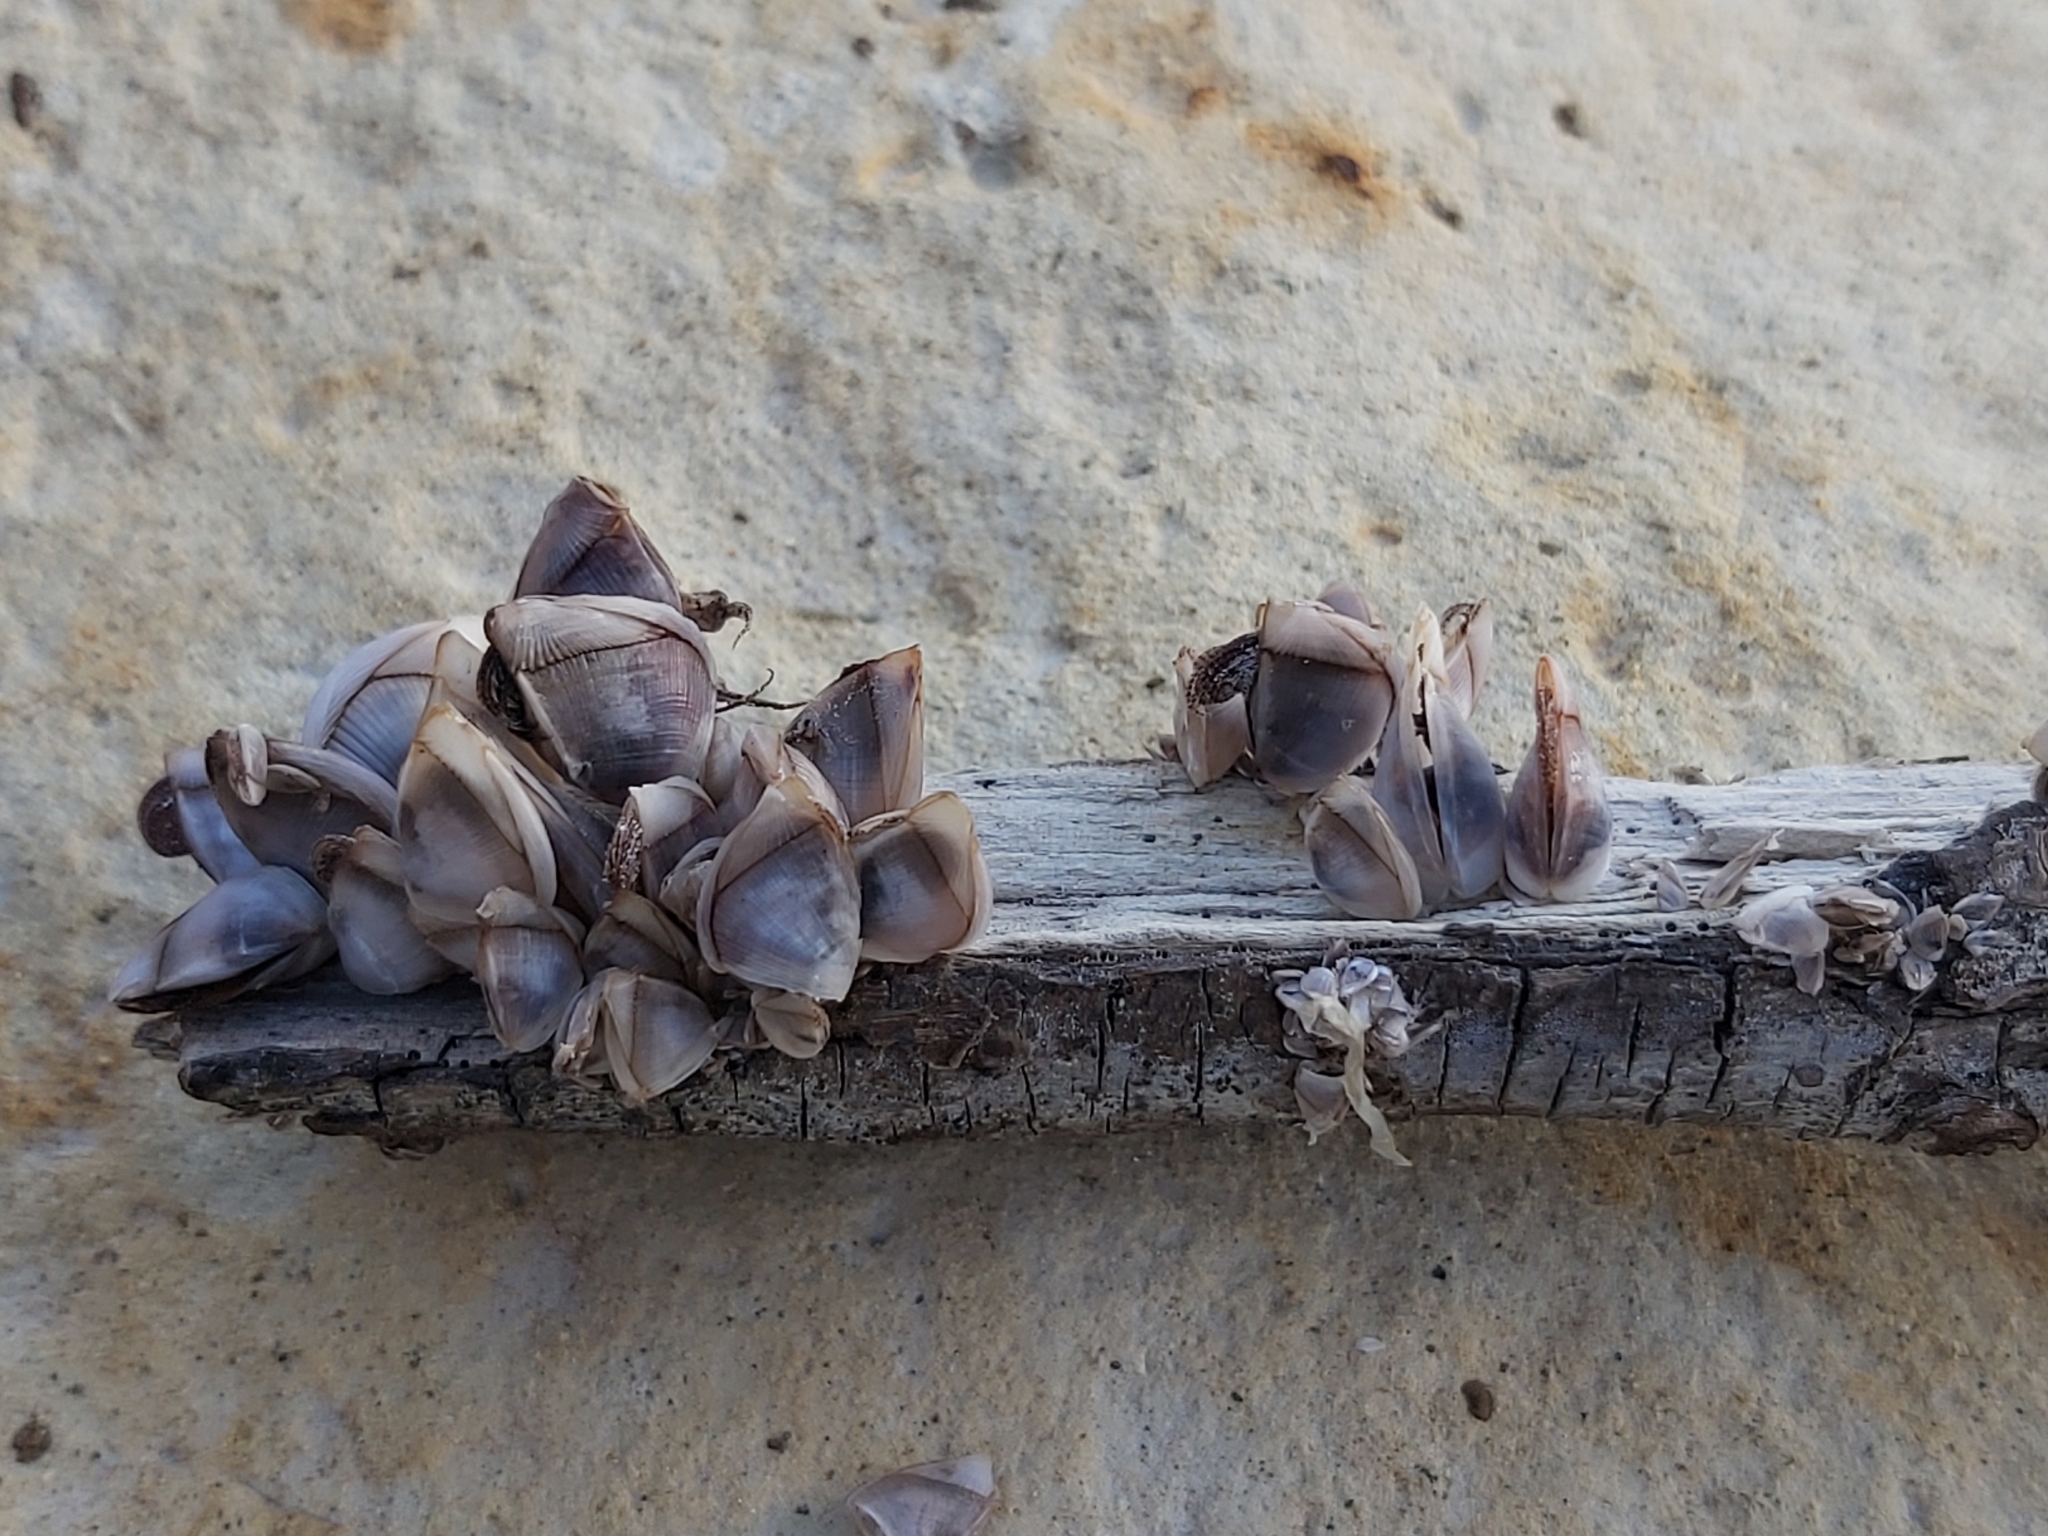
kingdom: Animalia
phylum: Arthropoda
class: Maxillopoda
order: Pedunculata
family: Lepadidae
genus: Lepas
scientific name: Lepas pectinata
